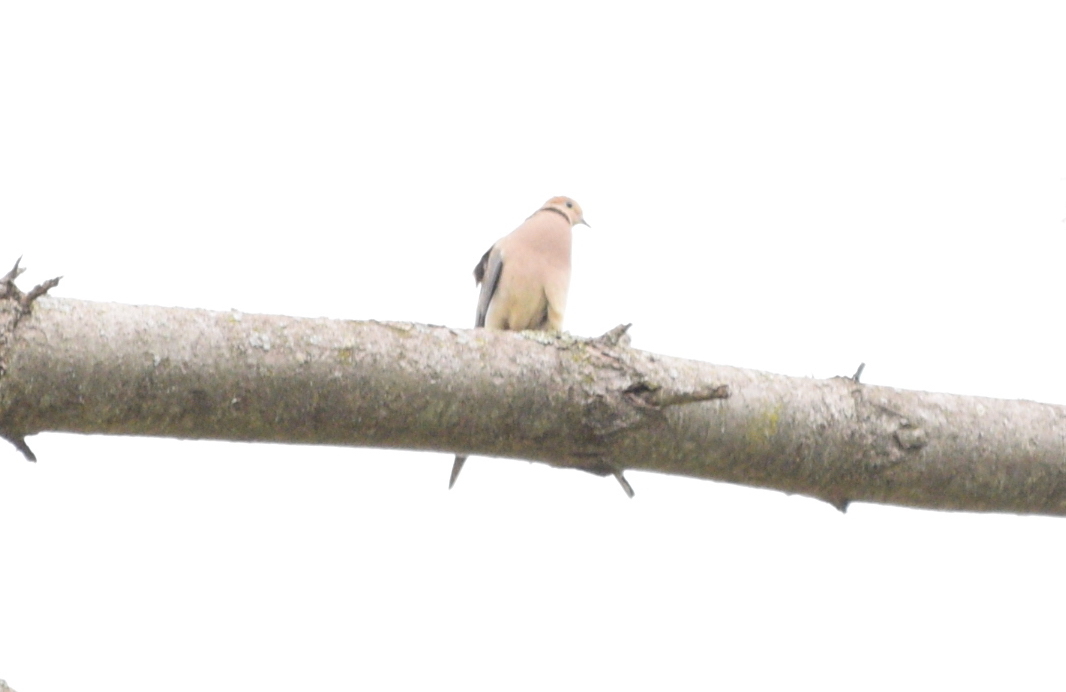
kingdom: Animalia
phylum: Chordata
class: Aves
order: Columbiformes
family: Columbidae
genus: Zenaida
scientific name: Zenaida macroura
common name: Mourning dove
